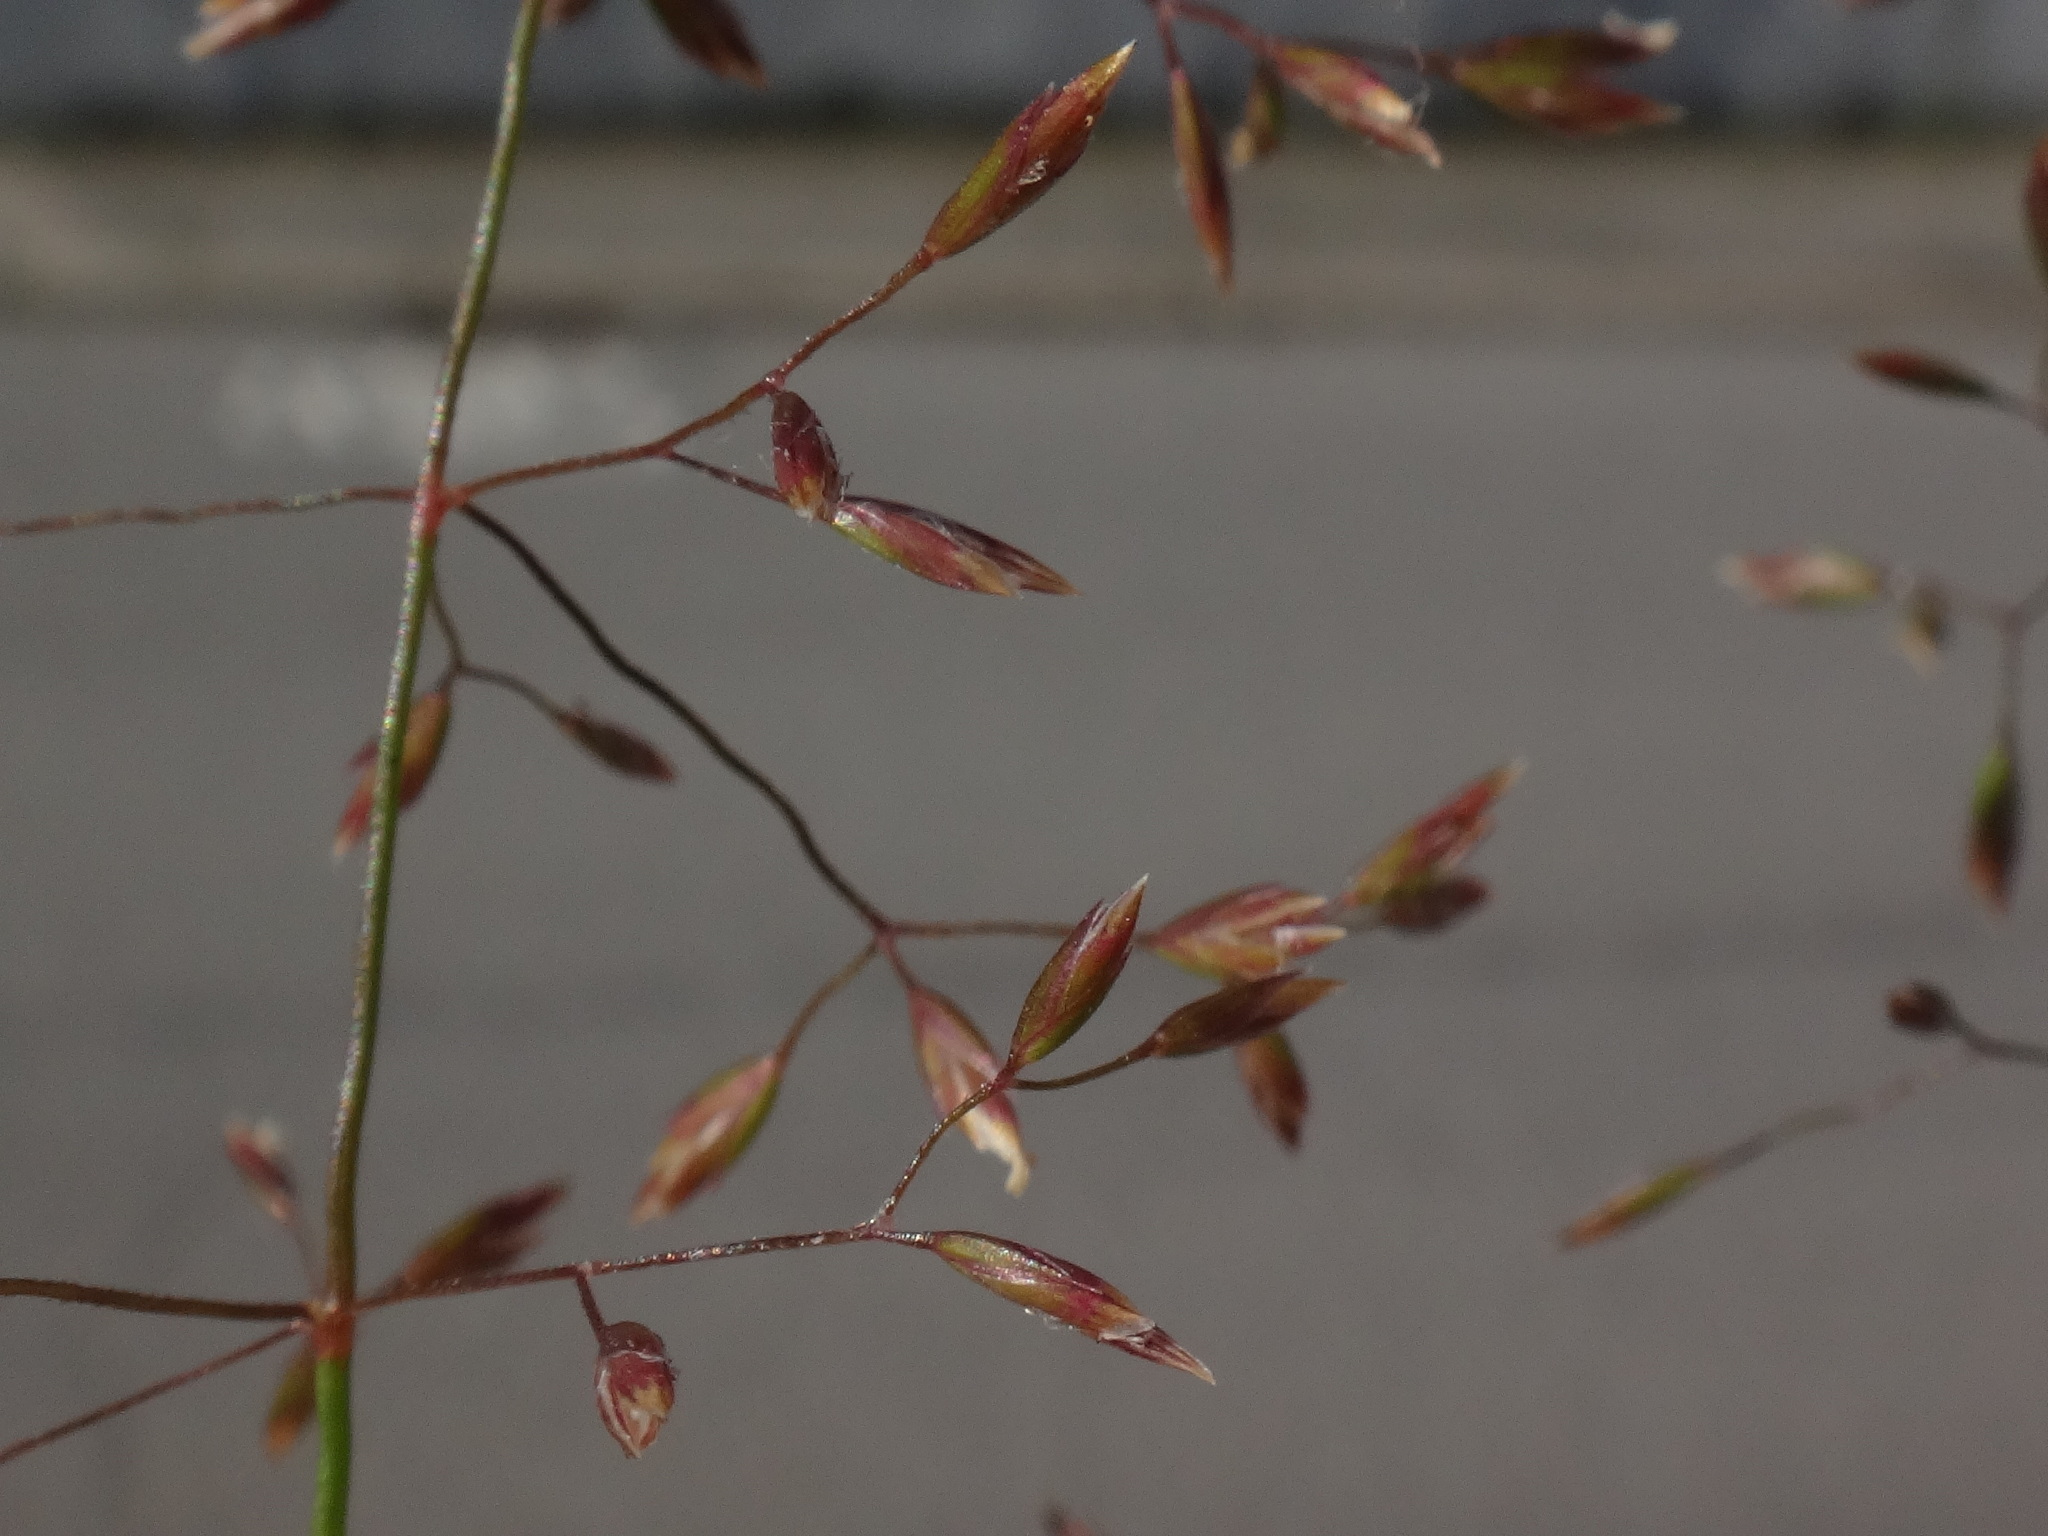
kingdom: Plantae
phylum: Tracheophyta
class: Liliopsida
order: Poales
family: Poaceae
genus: Poa
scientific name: Poa nemoralis
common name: Wood bluegrass
